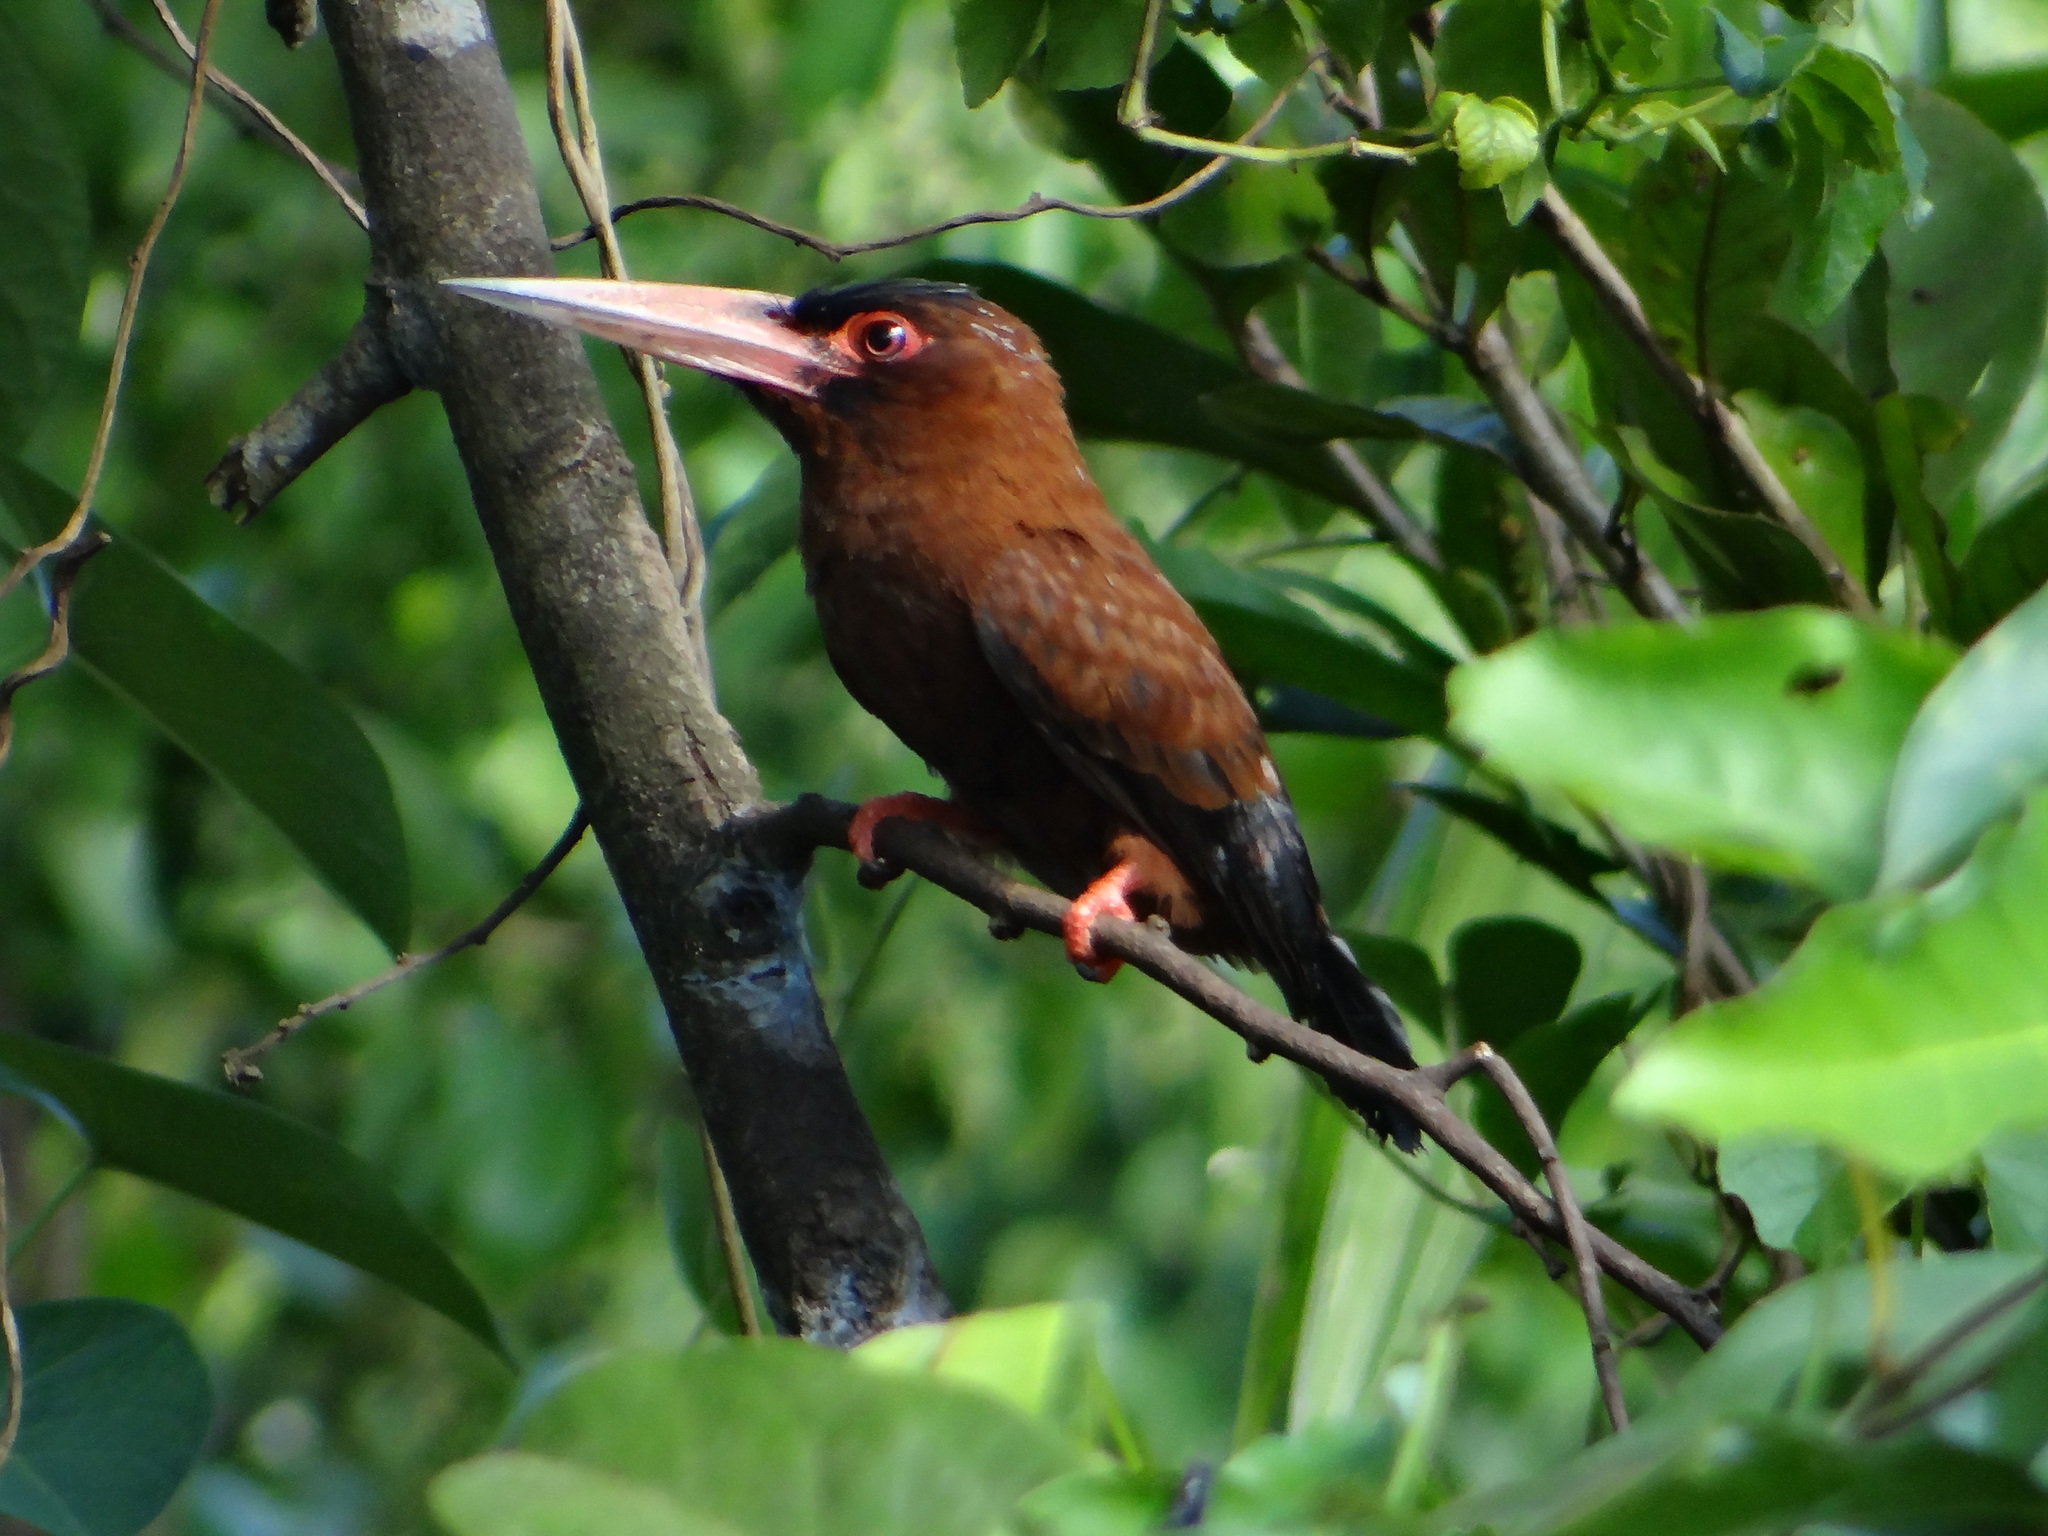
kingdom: Animalia
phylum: Chordata
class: Aves
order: Piciformes
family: Galbulidae
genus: Galbalcyrhynchus
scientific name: Galbalcyrhynchus purusianus
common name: Purus jacamar
